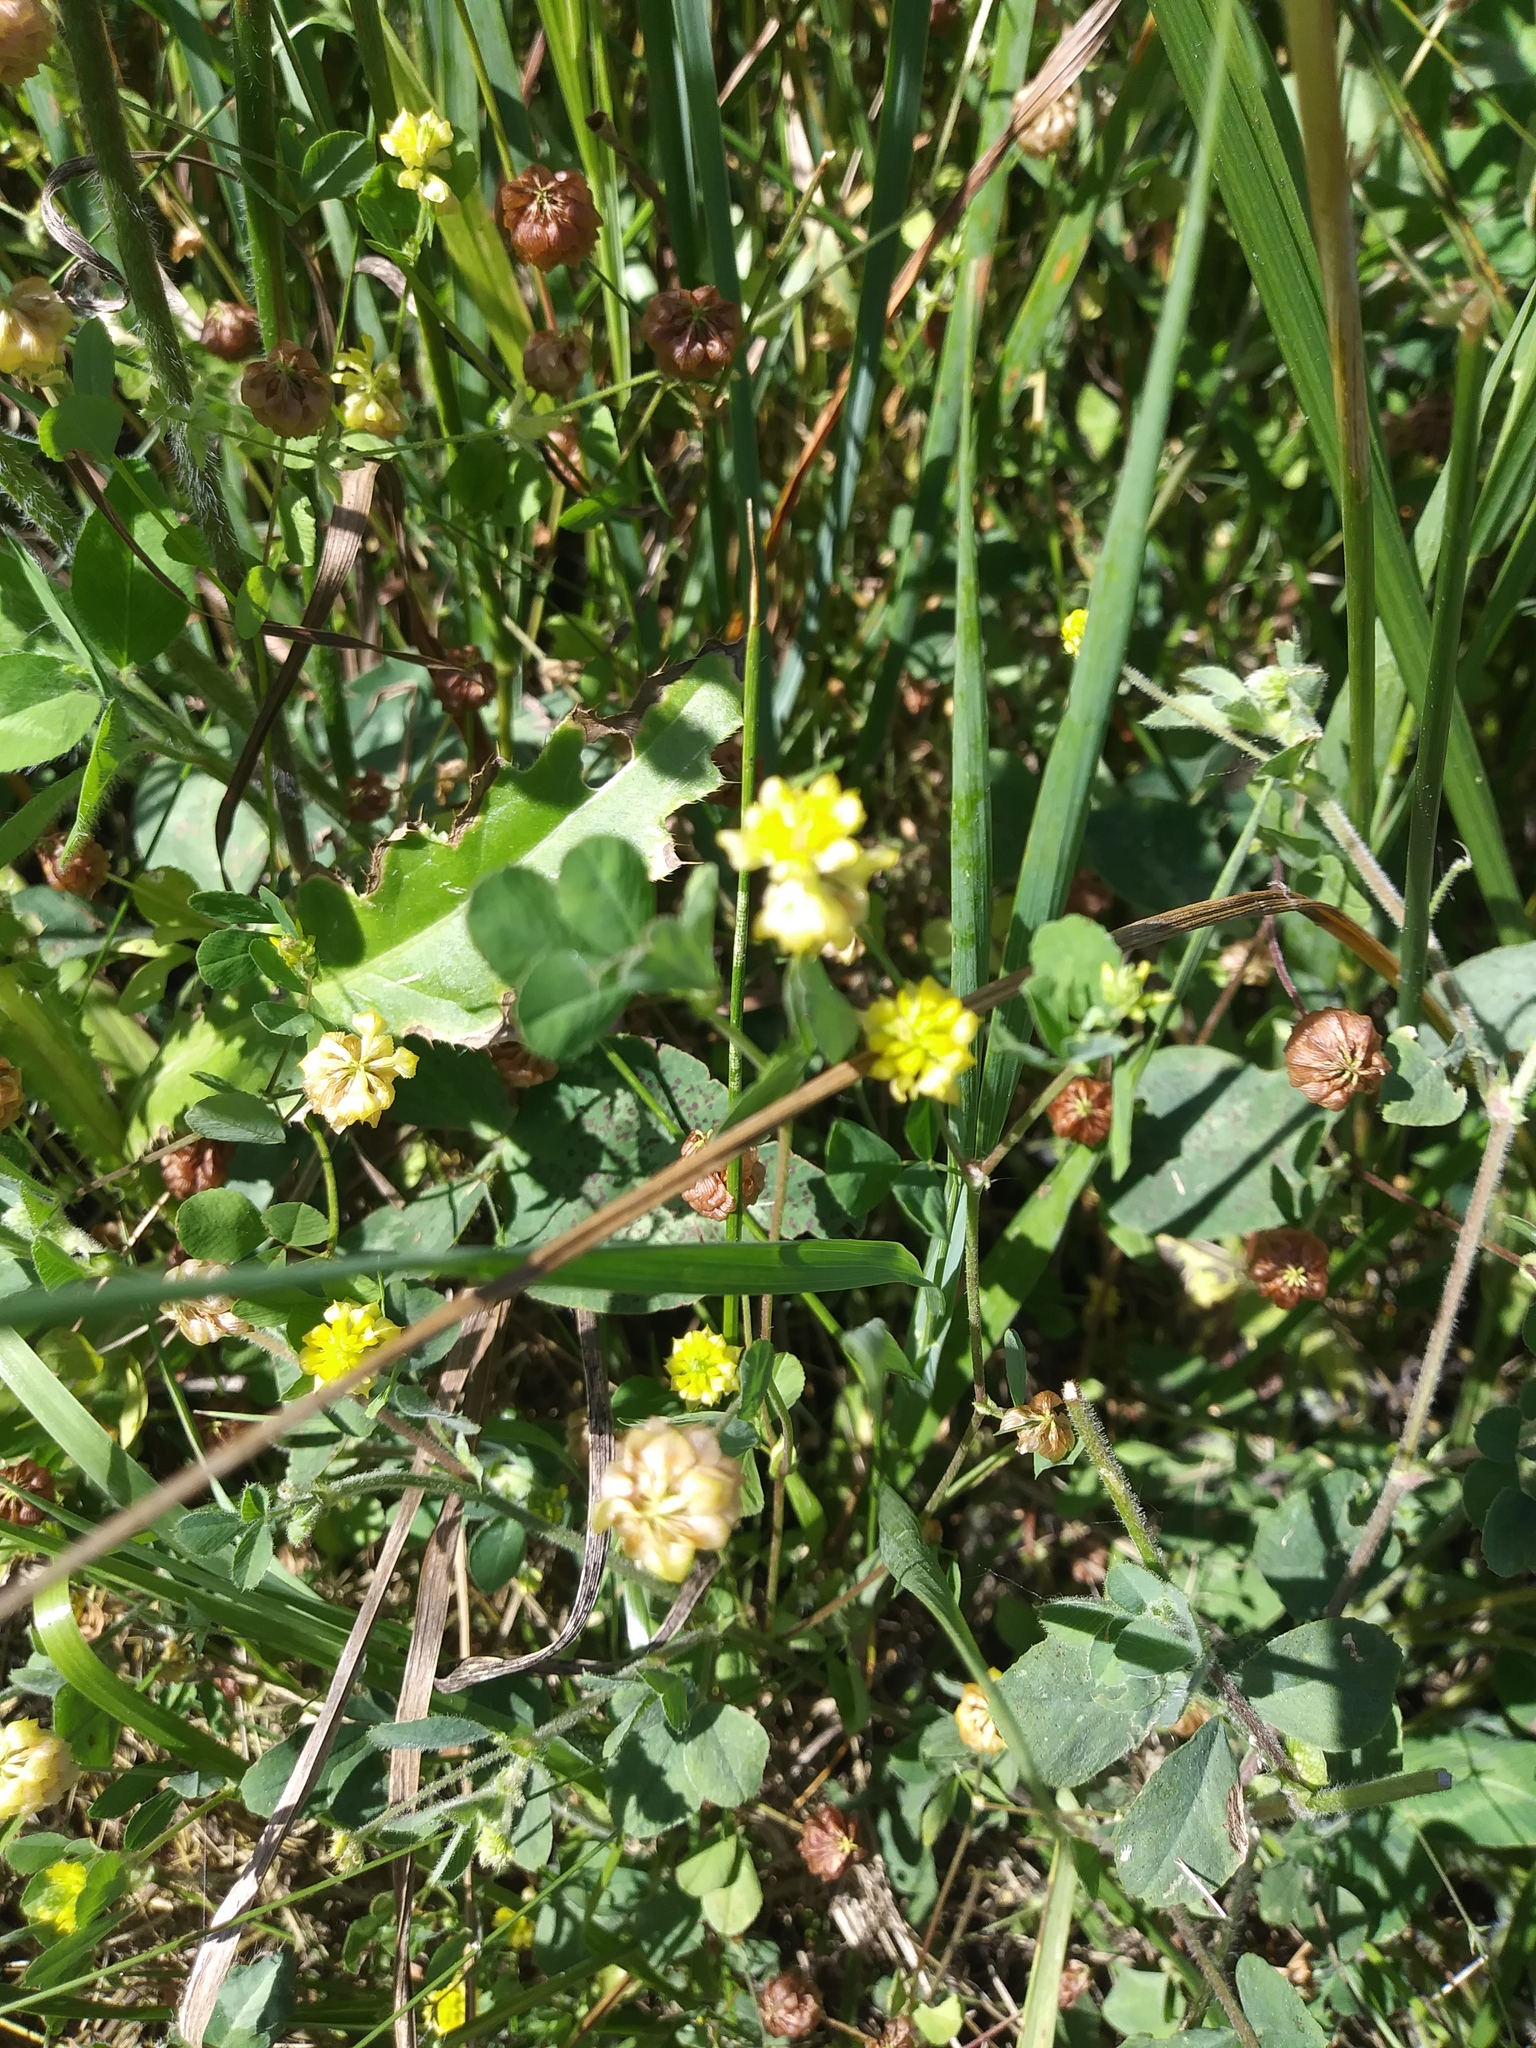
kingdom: Plantae
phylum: Tracheophyta
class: Magnoliopsida
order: Fabales
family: Fabaceae
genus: Trifolium
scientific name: Trifolium campestre
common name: Field clover
